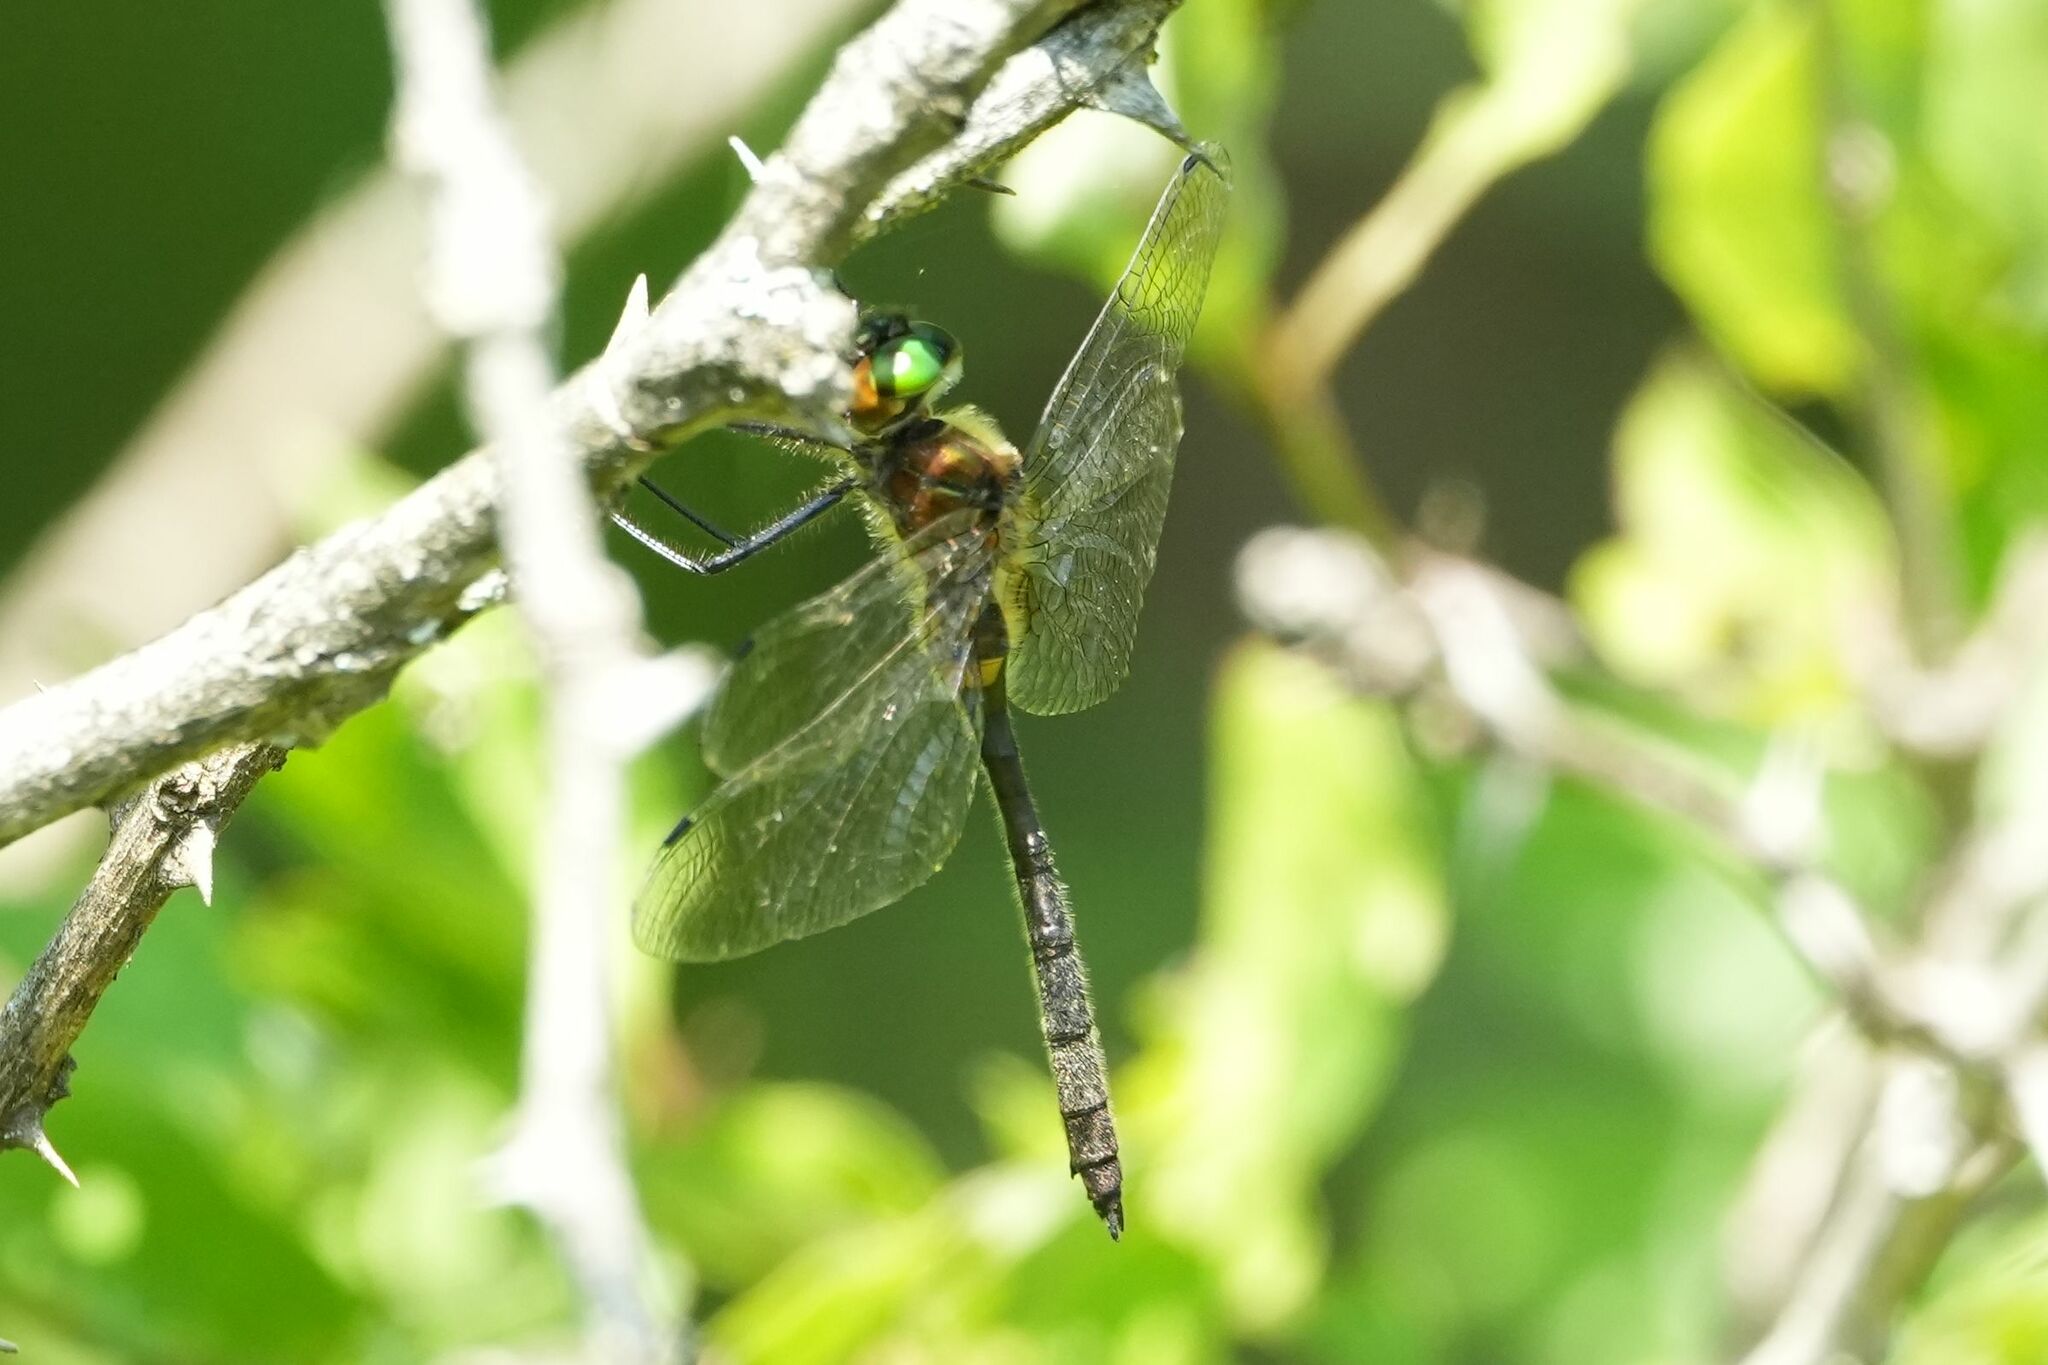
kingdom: Animalia
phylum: Arthropoda
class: Insecta
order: Odonata
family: Corduliidae
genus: Dorocordulia
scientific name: Dorocordulia libera
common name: Racket-tailed emerald
